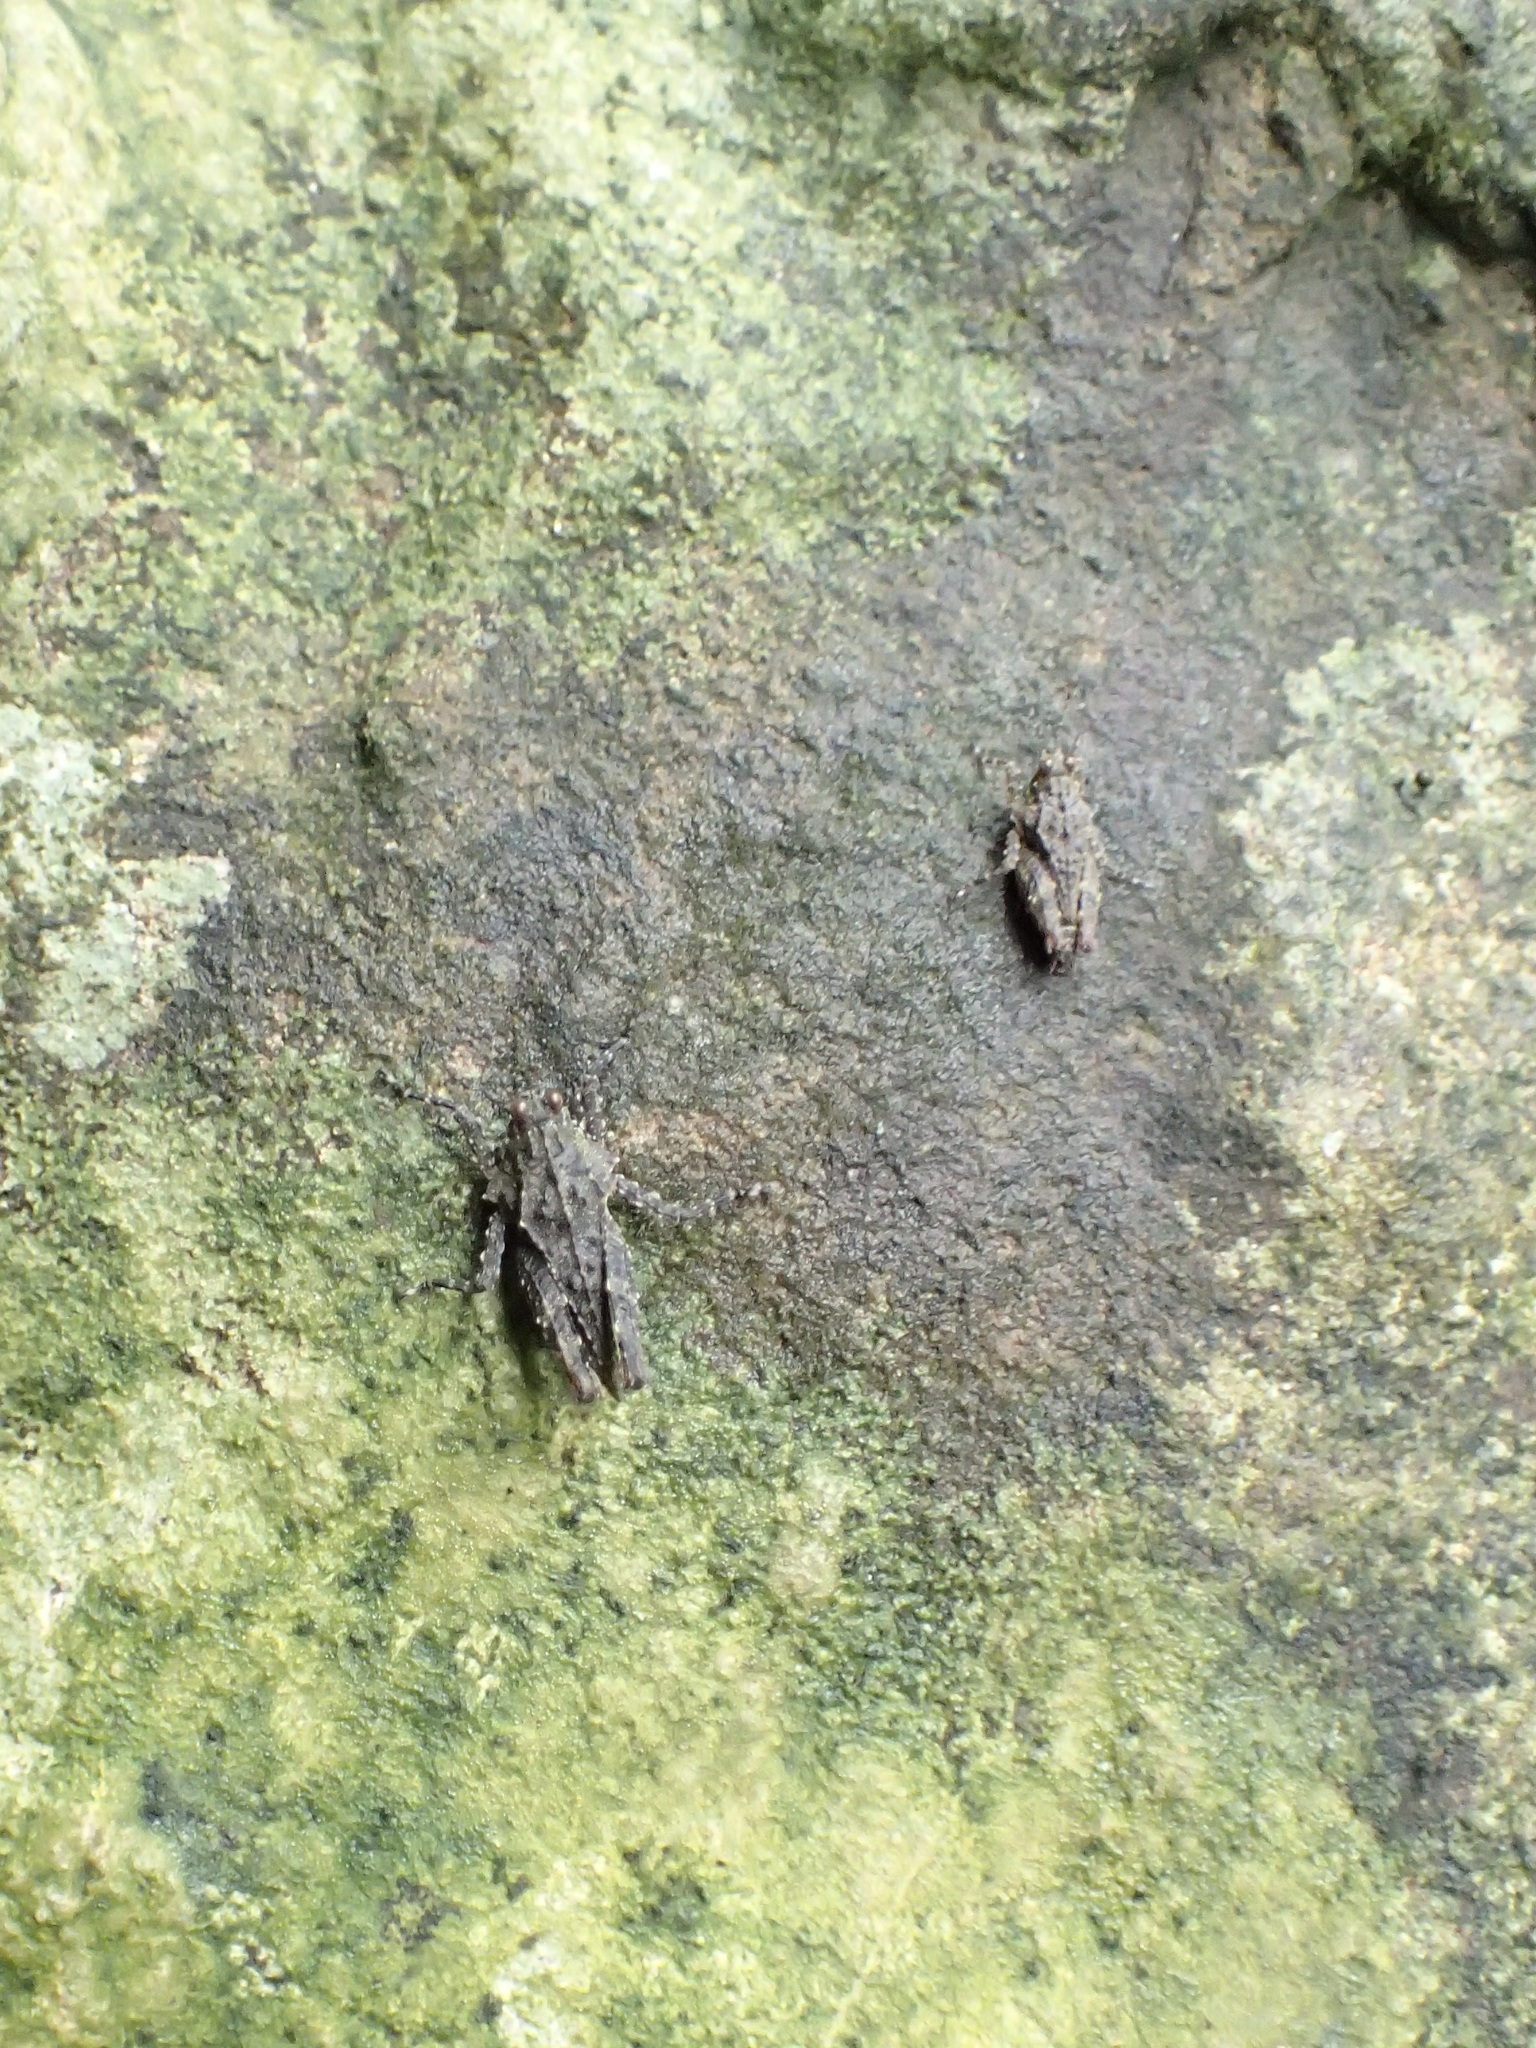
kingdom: Animalia
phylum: Arthropoda
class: Insecta
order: Orthoptera
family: Tetrigidae
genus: Platygavialidium
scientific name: Platygavialidium formosanum
